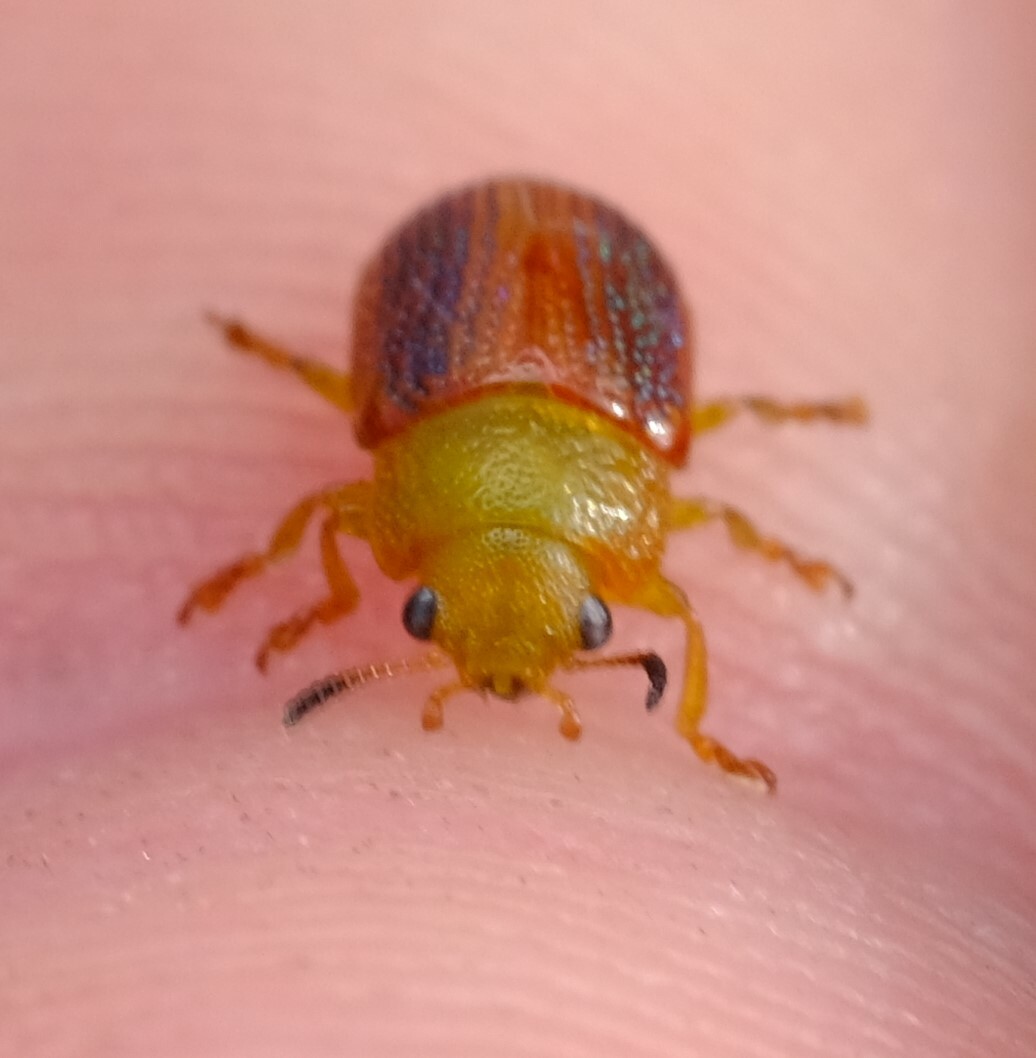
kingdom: Animalia
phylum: Arthropoda
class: Insecta
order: Coleoptera
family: Chrysomelidae
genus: Calomela
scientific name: Calomela
